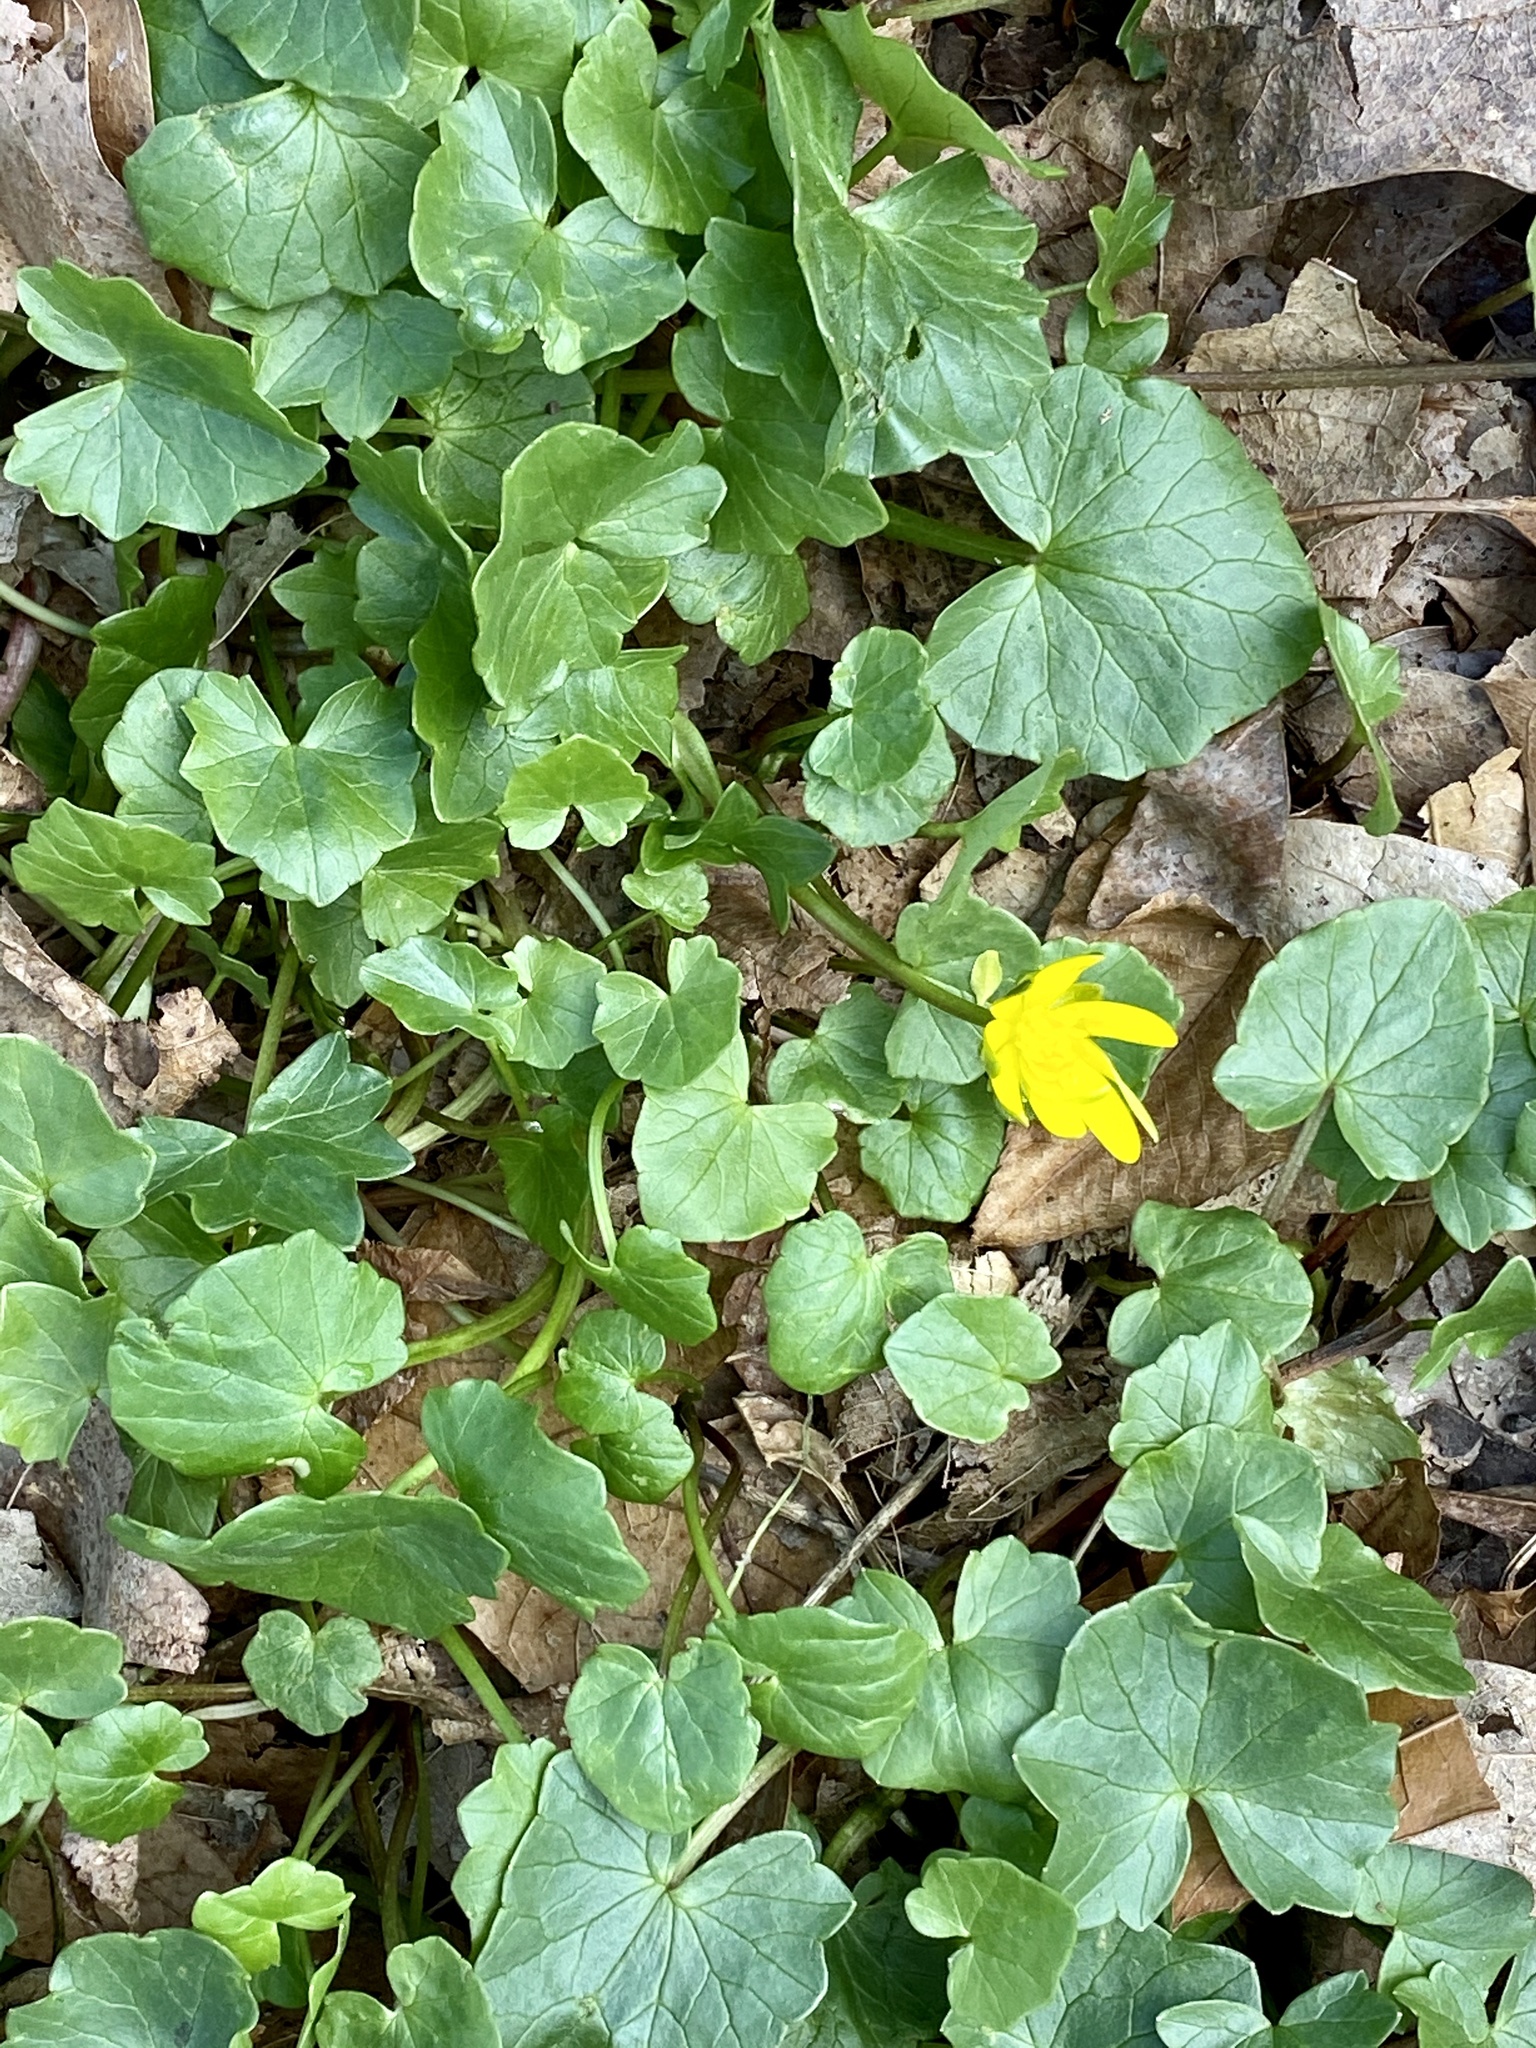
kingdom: Plantae
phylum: Tracheophyta
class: Magnoliopsida
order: Ranunculales
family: Ranunculaceae
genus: Ficaria
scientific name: Ficaria verna
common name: Lesser celandine
